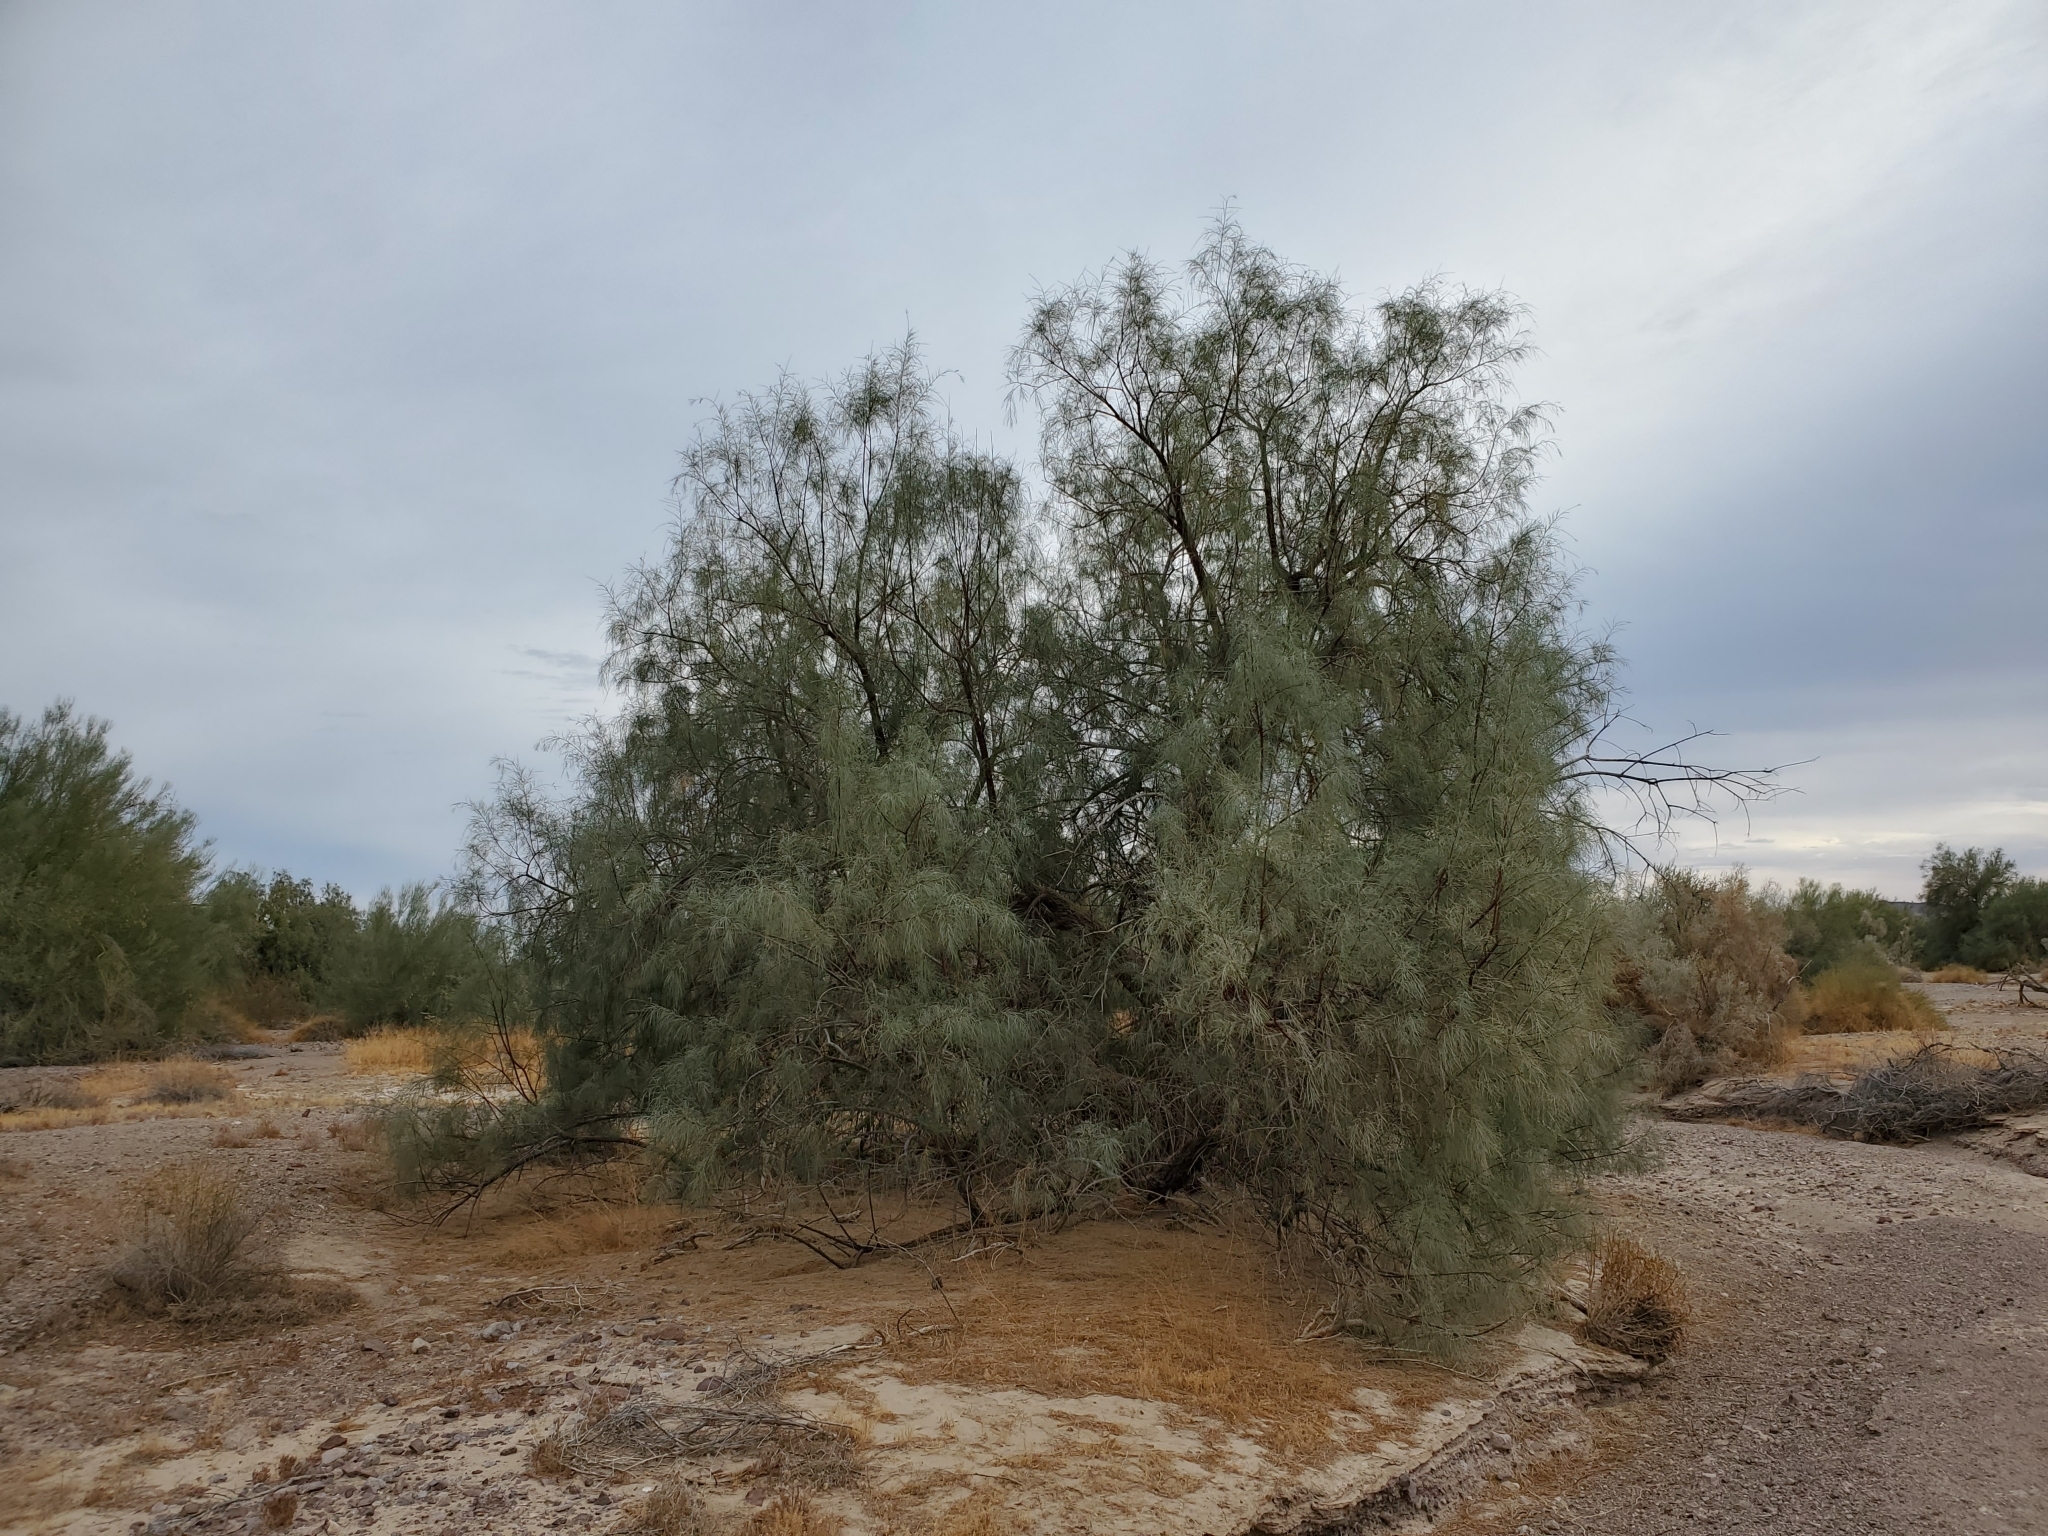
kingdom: Plantae
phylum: Tracheophyta
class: Magnoliopsida
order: Caryophyllales
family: Tamaricaceae
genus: Tamarix
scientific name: Tamarix aphylla
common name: Athel tamarisk
